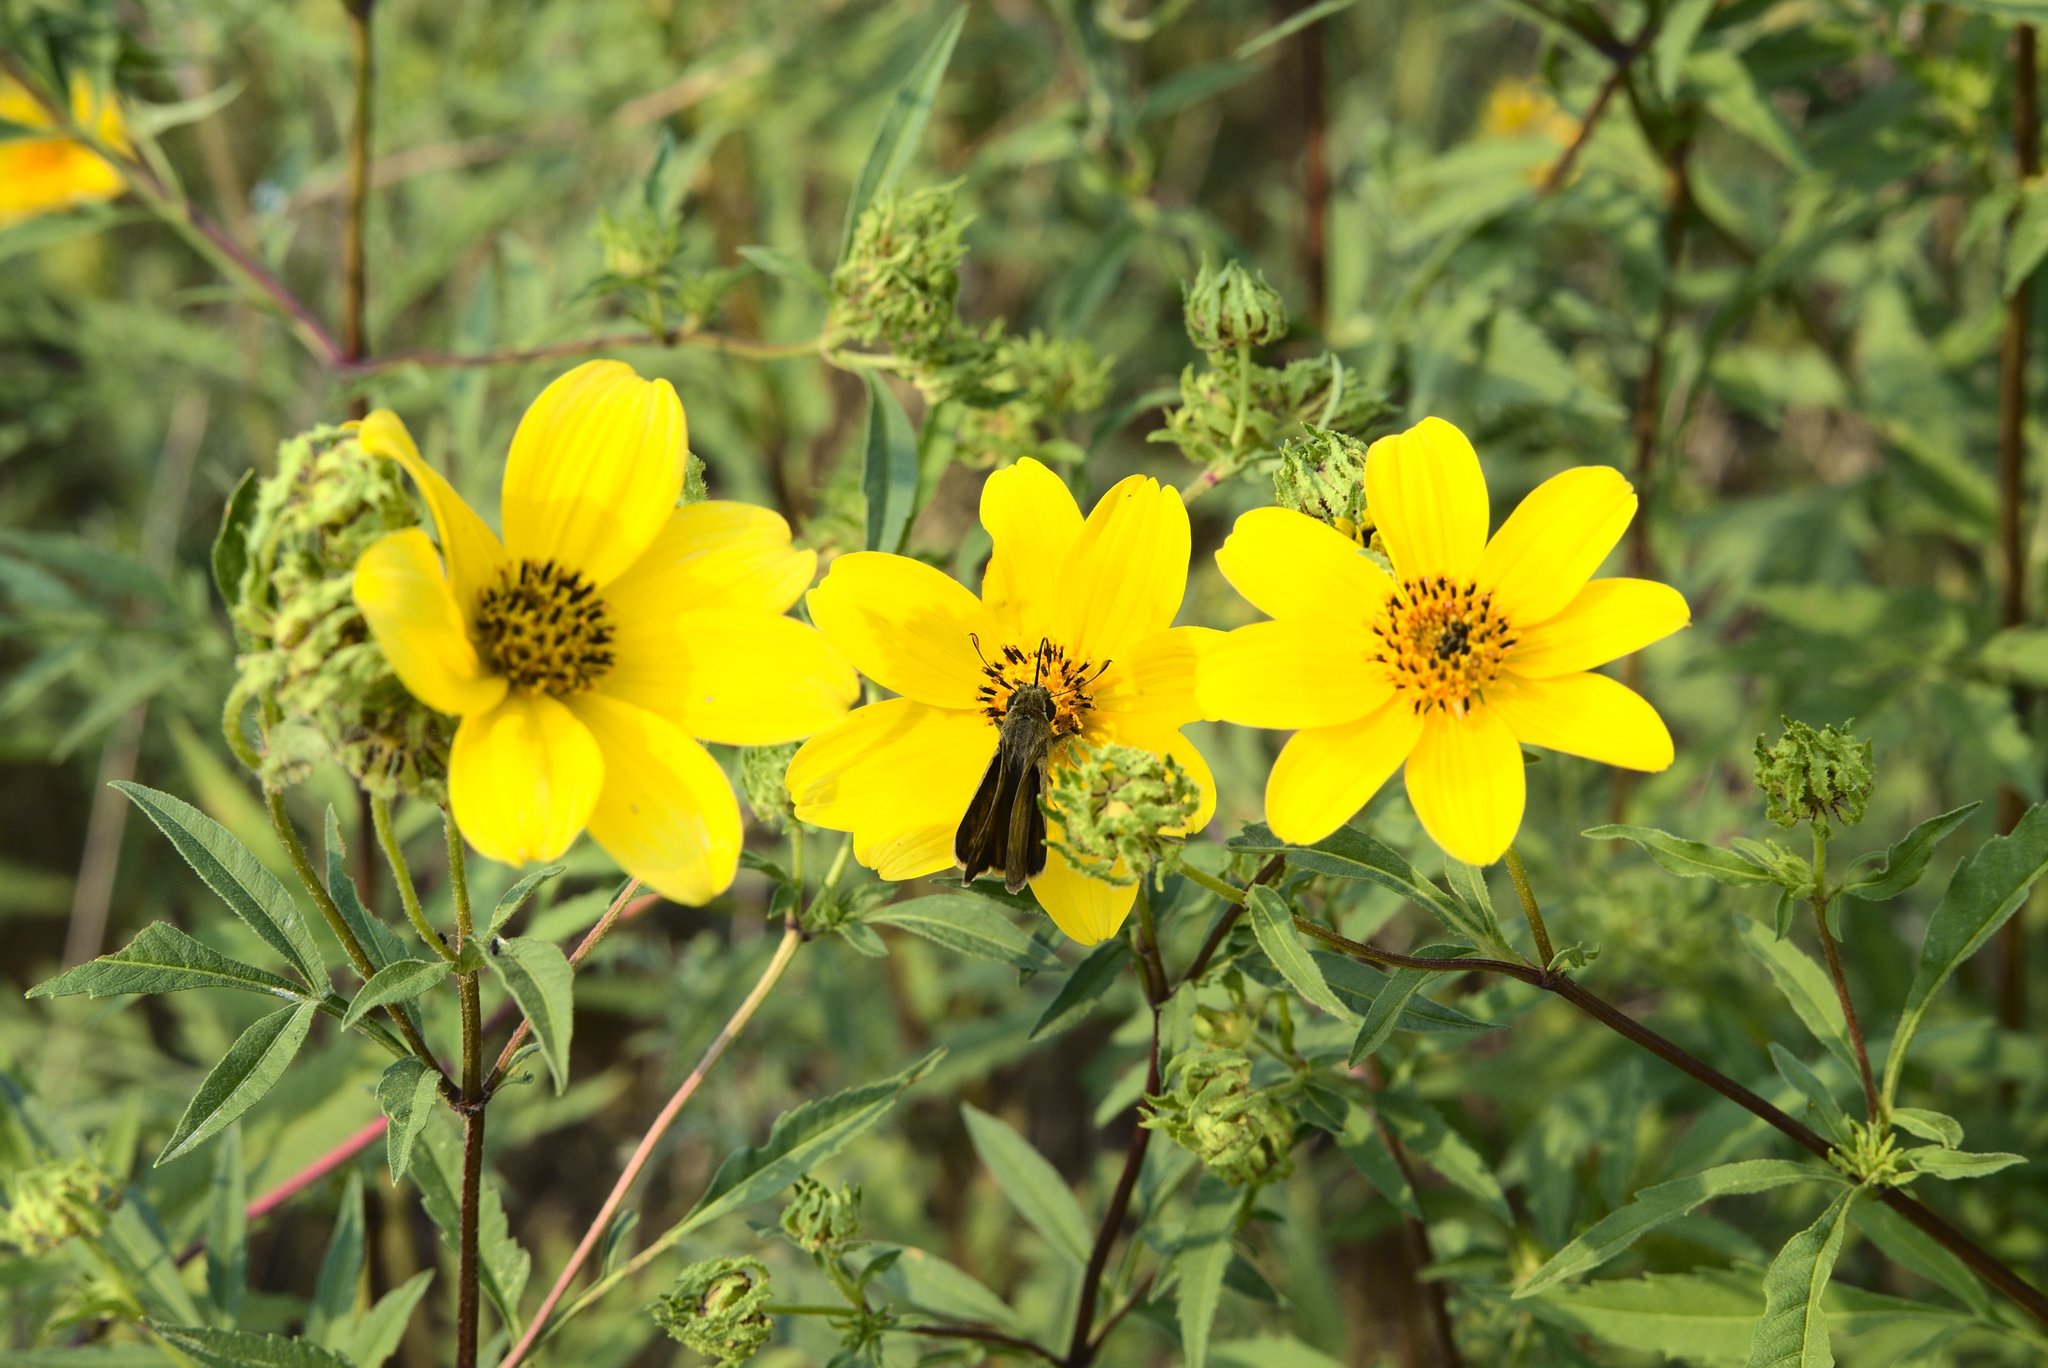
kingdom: Plantae
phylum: Tracheophyta
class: Magnoliopsida
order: Asterales
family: Asteraceae
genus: Bidens
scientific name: Bidens polylepis
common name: Awnless beggarticks
